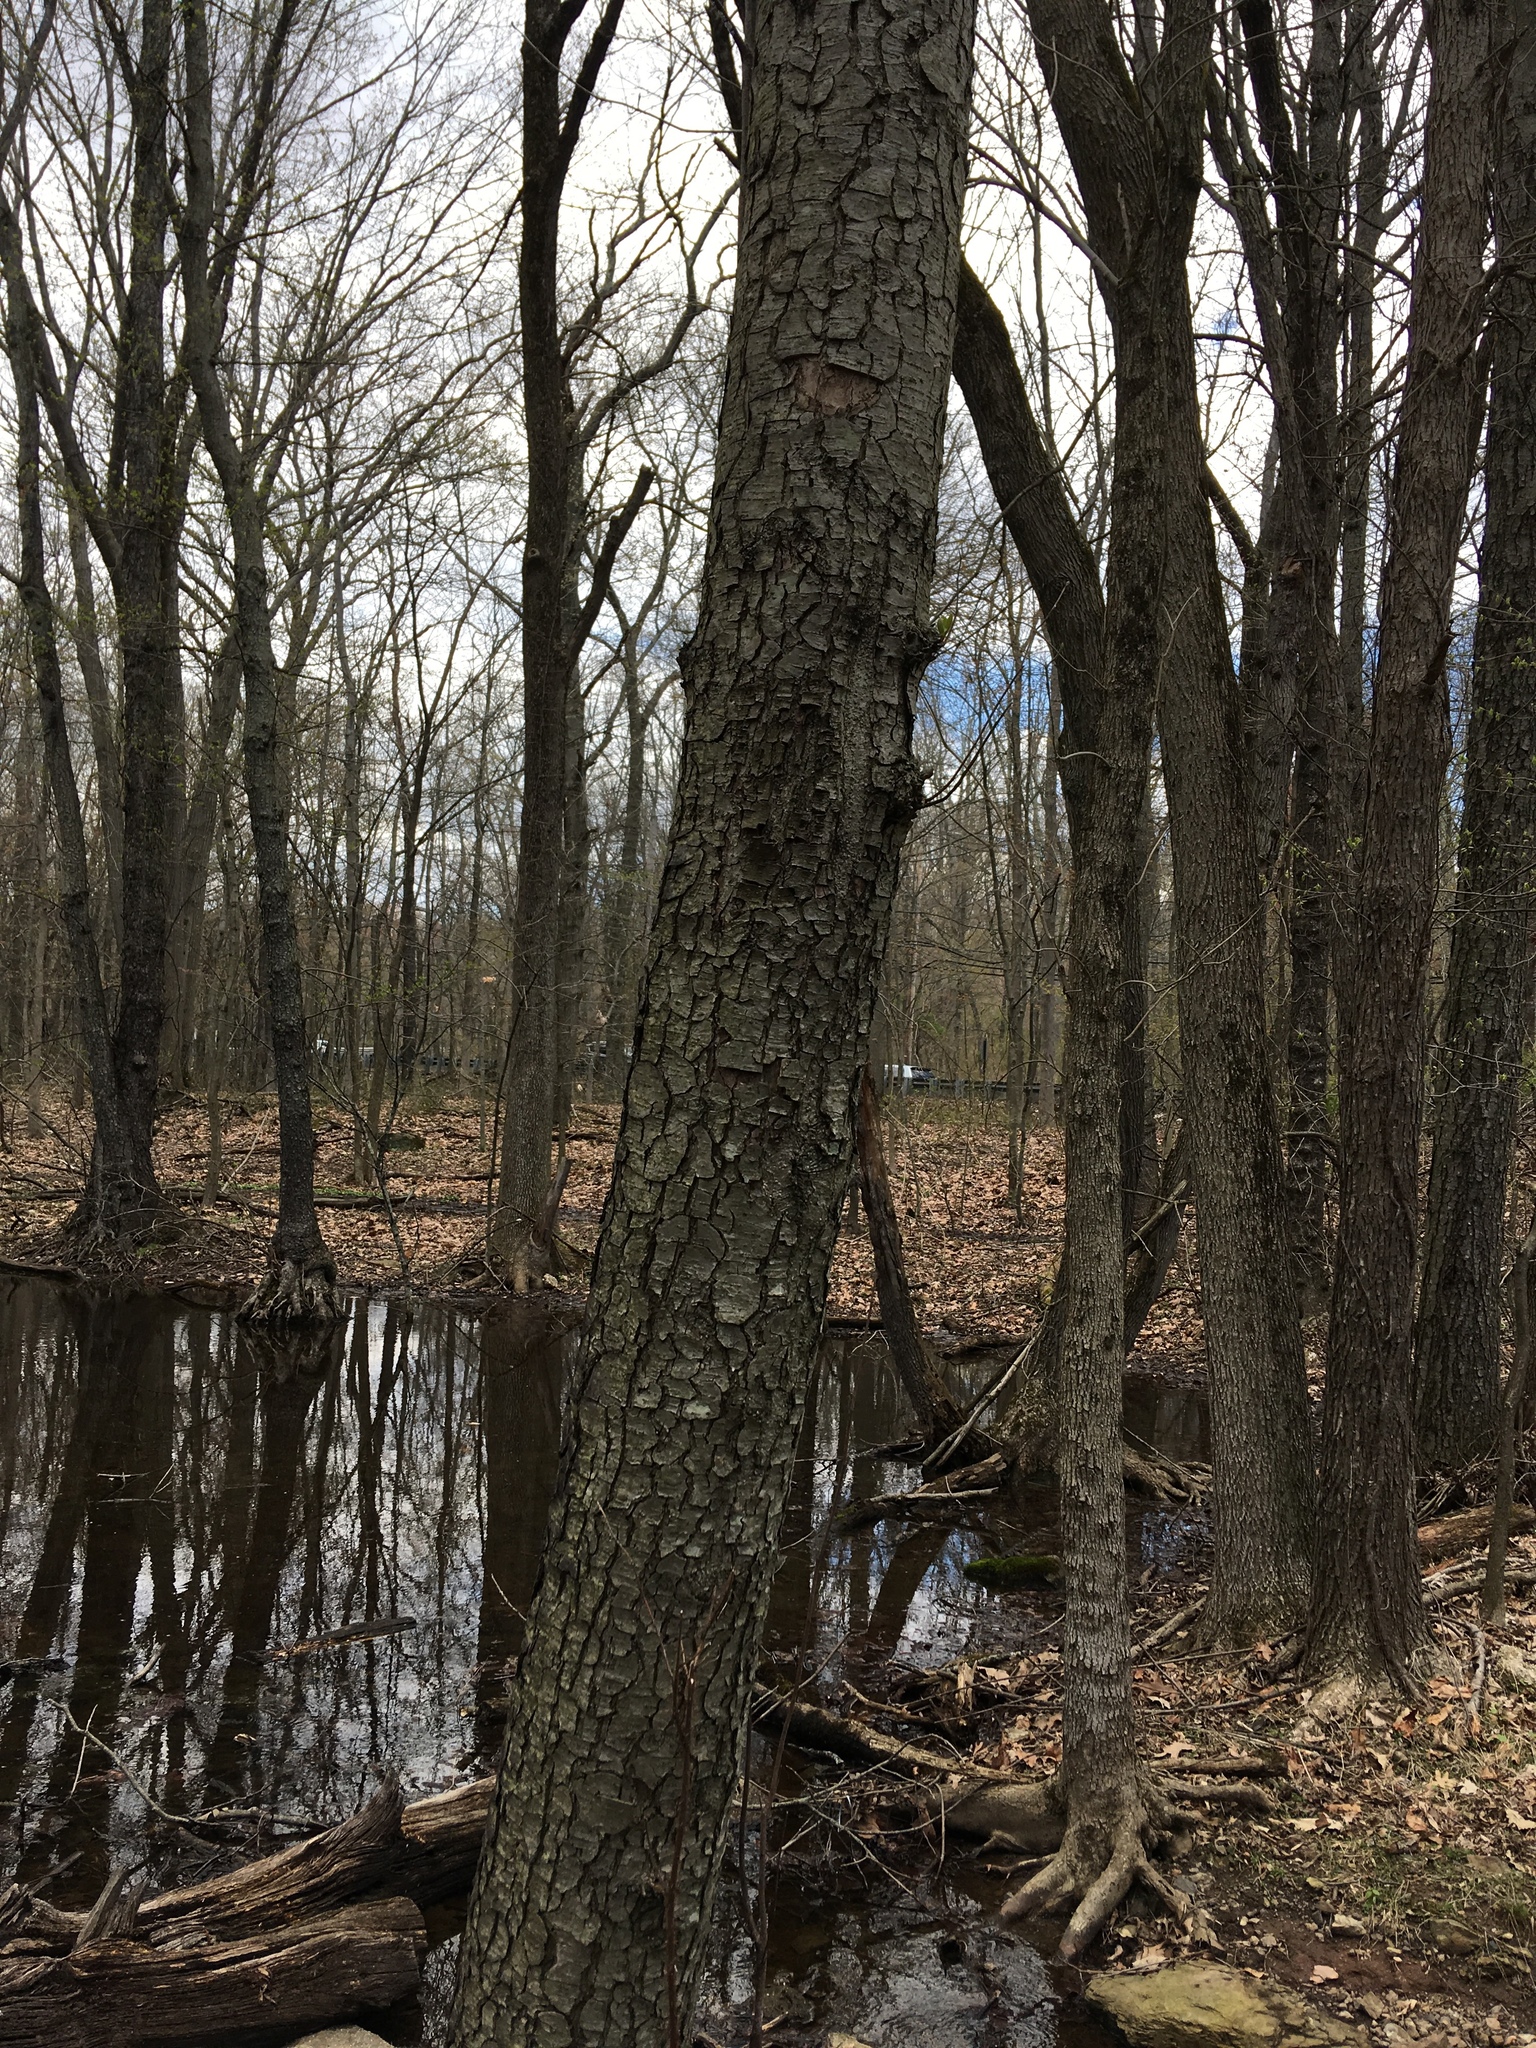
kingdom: Plantae
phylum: Tracheophyta
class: Magnoliopsida
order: Fagales
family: Betulaceae
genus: Alnus
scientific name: Alnus glutinosa
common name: Black alder
